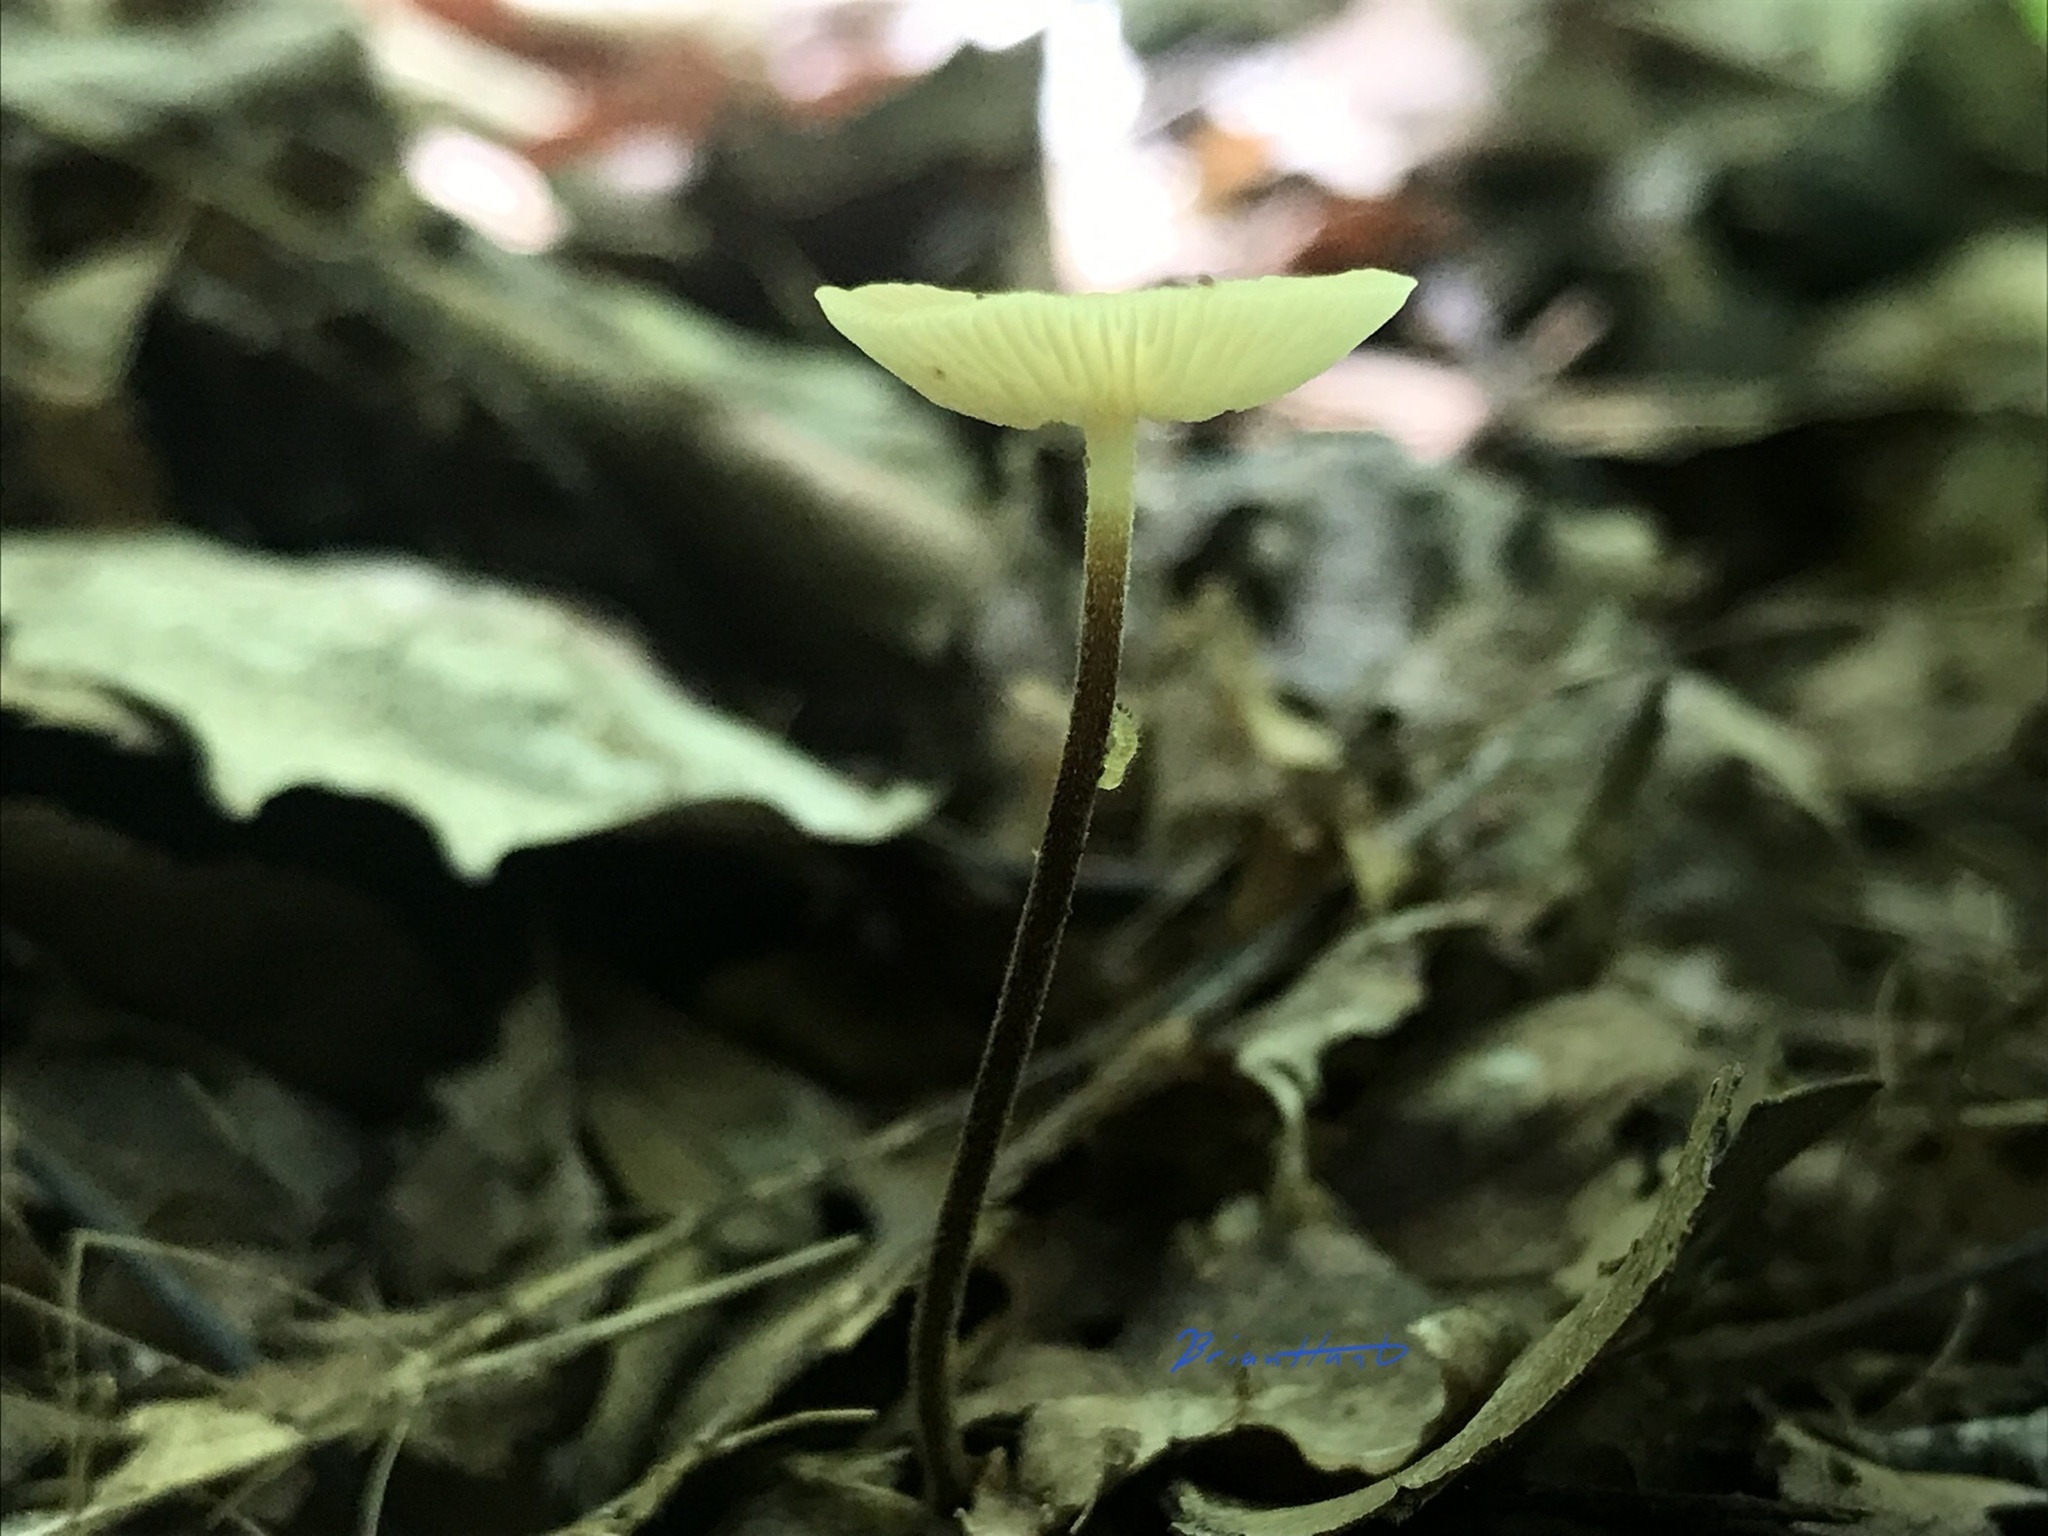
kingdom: Fungi
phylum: Basidiomycota
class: Agaricomycetes
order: Agaricales
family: Physalacriaceae
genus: Rhizomarasmius
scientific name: Rhizomarasmius pyrrhocephalus
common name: Hairy long stem marasmius
